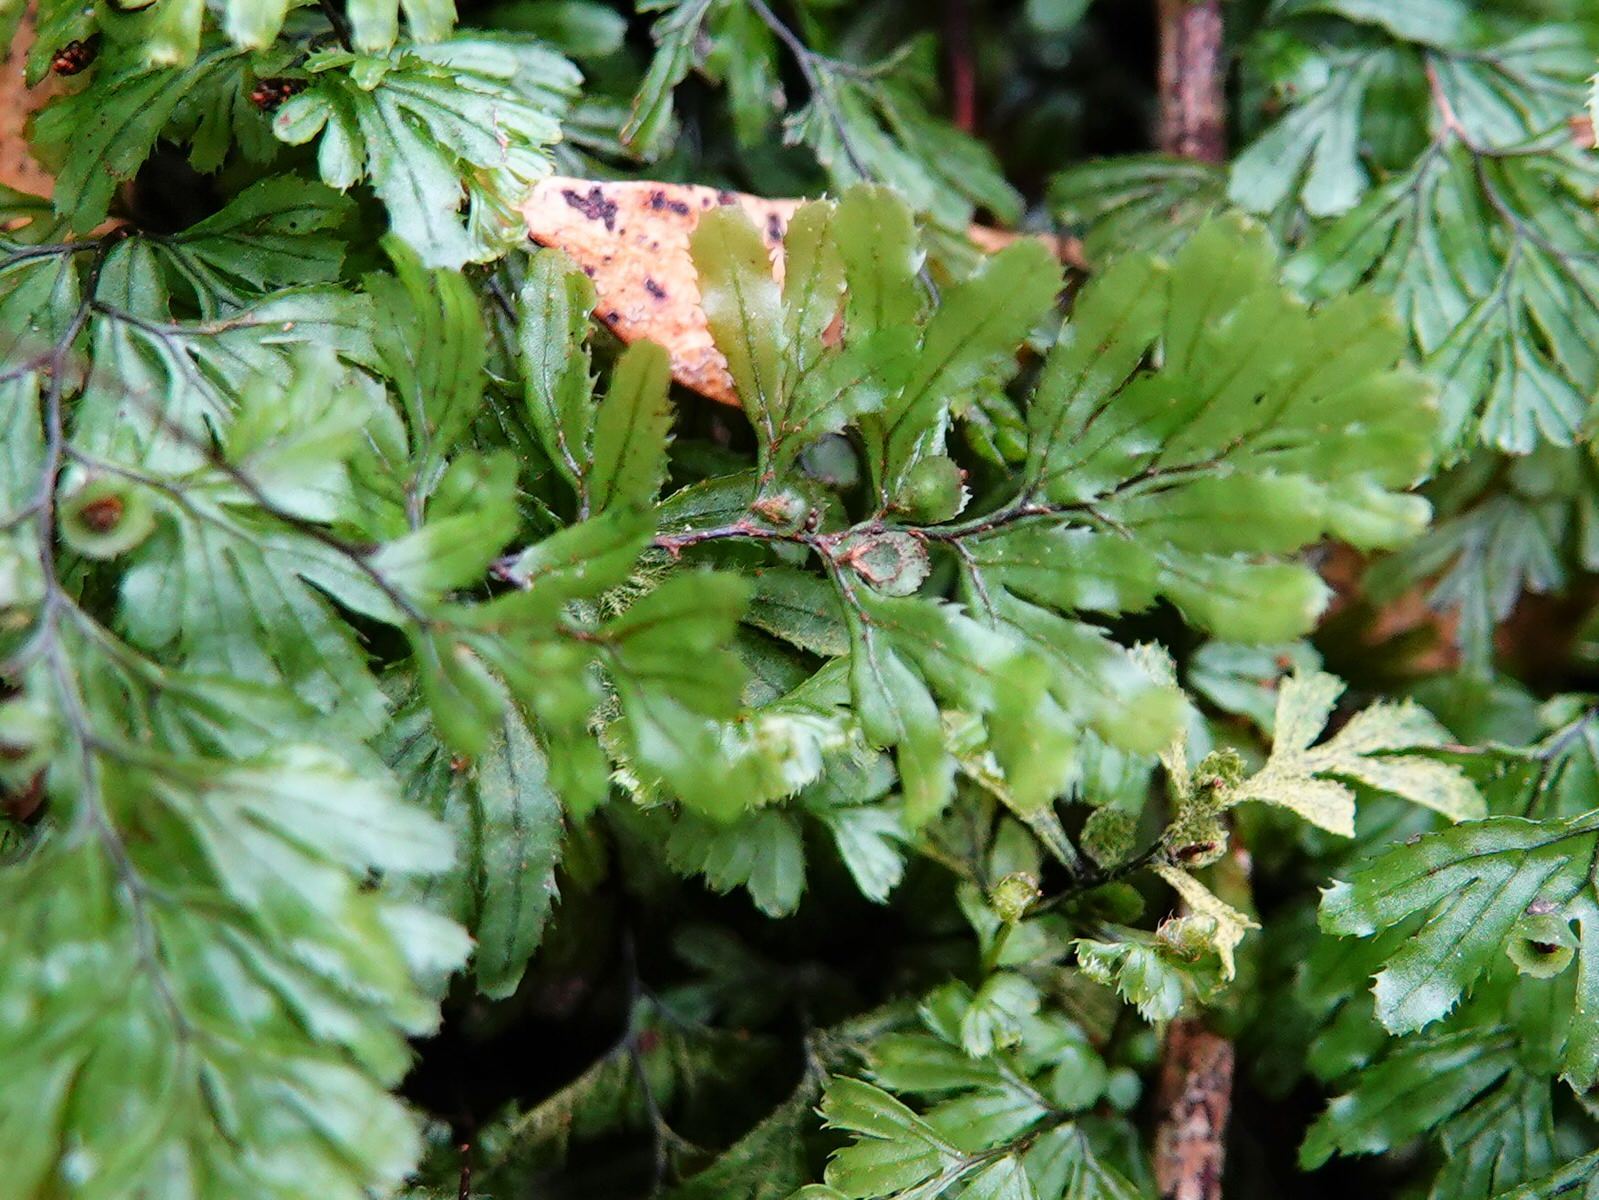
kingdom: Plantae
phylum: Tracheophyta
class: Polypodiopsida
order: Hymenophyllales
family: Hymenophyllaceae
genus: Hymenophyllum
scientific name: Hymenophyllum revolutum
